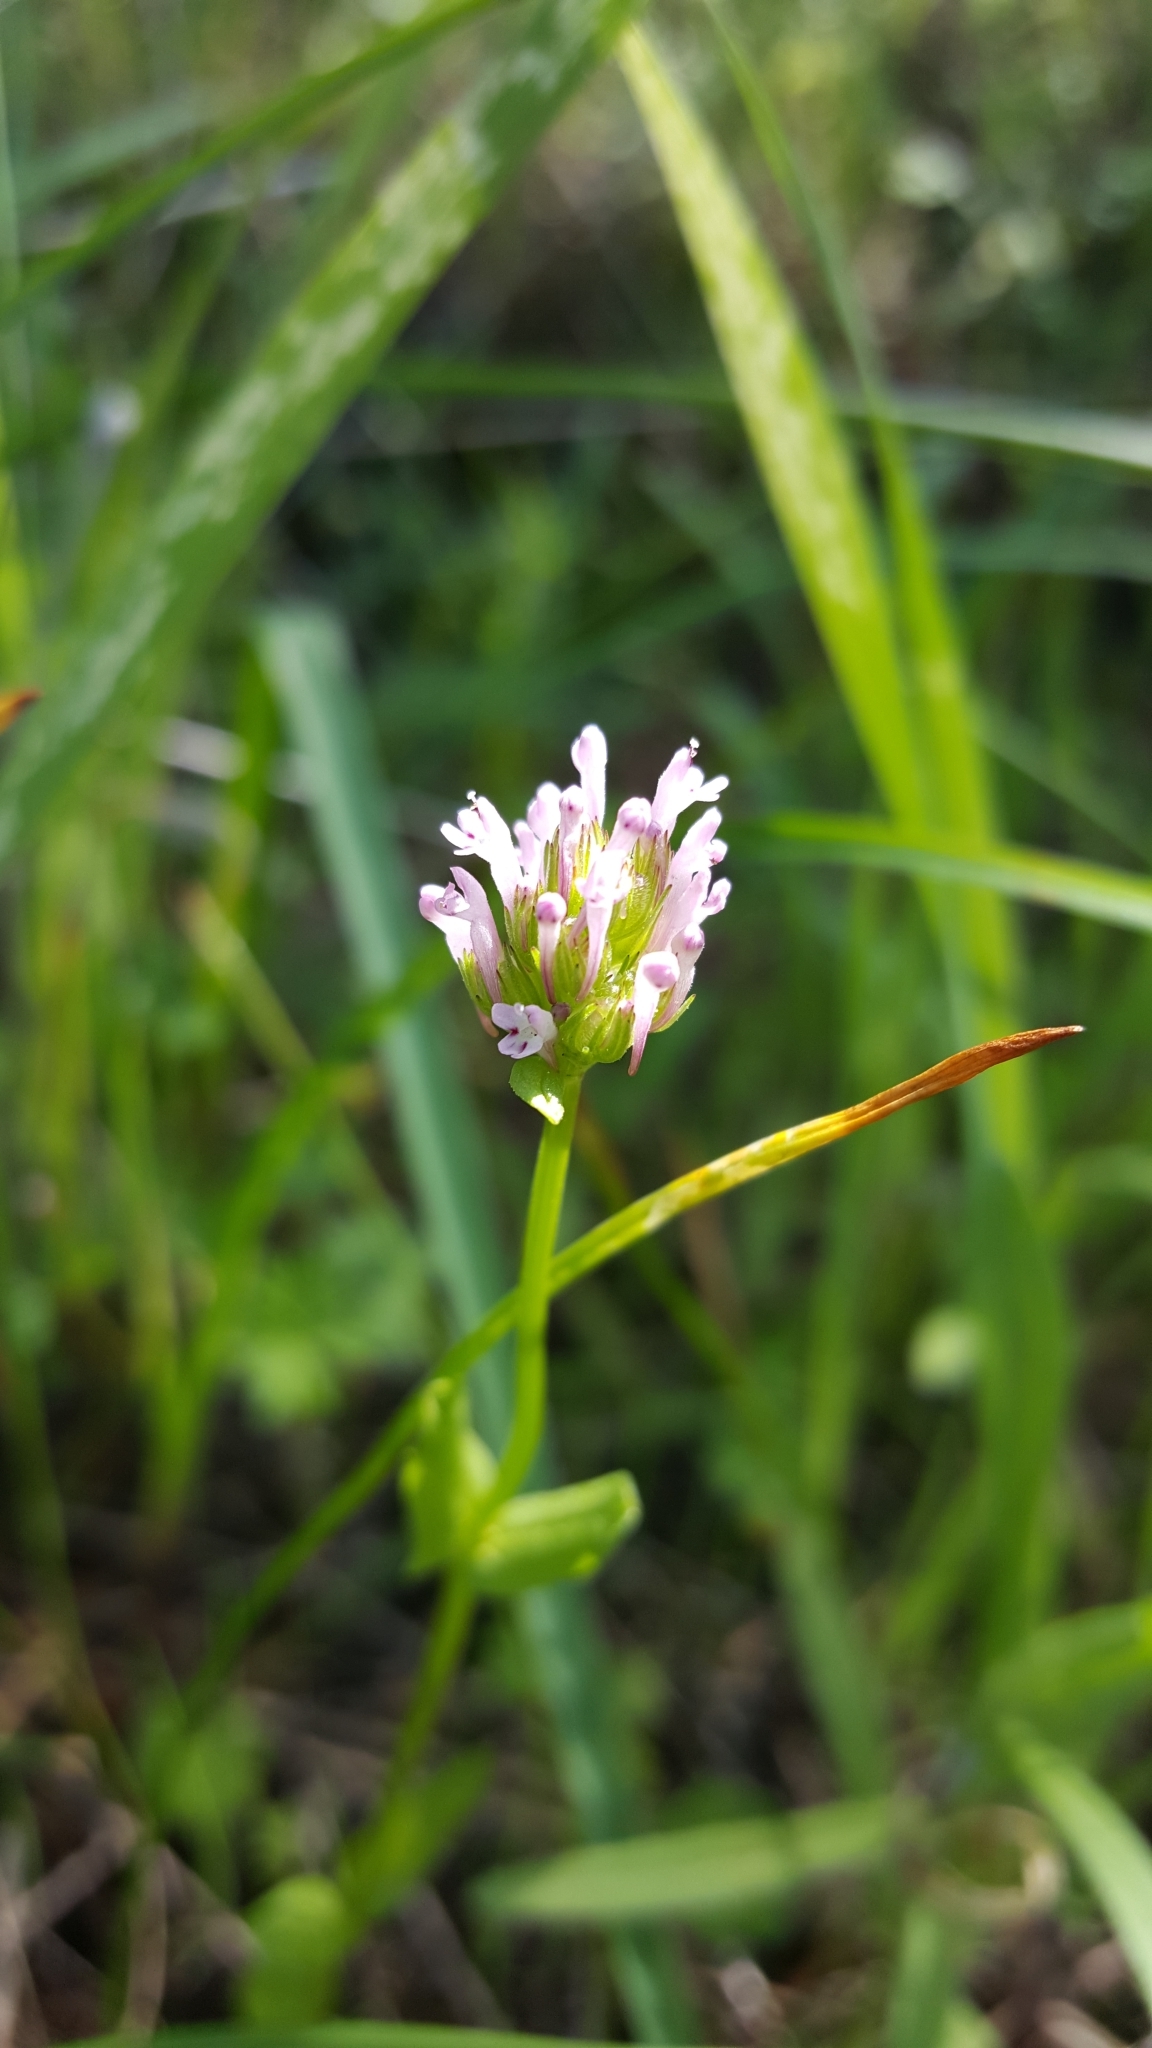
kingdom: Plantae
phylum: Tracheophyta
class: Magnoliopsida
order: Dipsacales
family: Caprifoliaceae
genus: Plectritis
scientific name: Plectritis ciliosa
